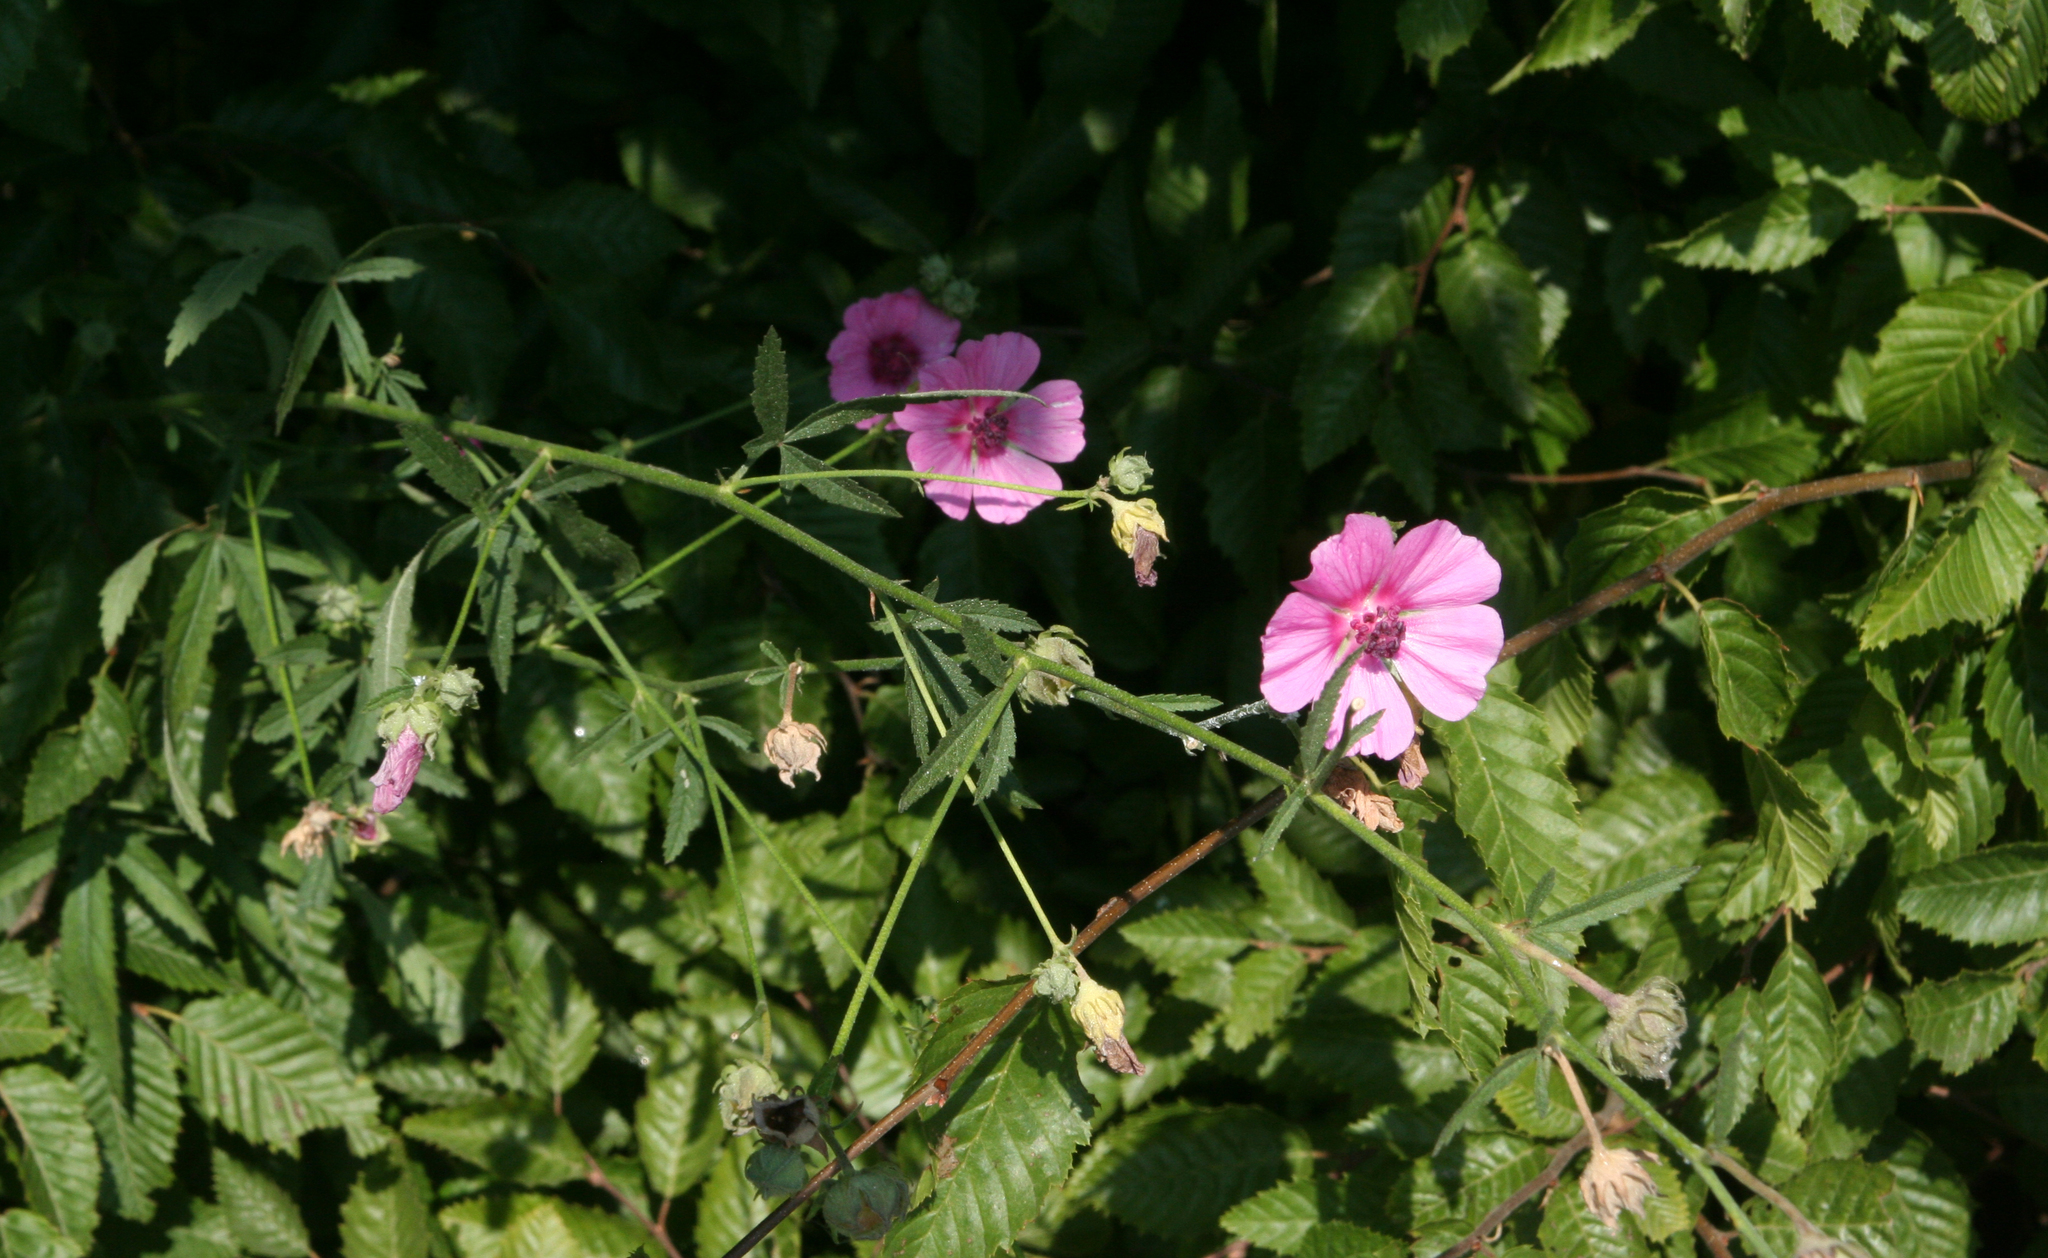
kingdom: Plantae
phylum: Tracheophyta
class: Magnoliopsida
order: Malvales
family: Malvaceae
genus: Althaea
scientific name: Althaea cannabina
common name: Palm-leaf marshmallow
